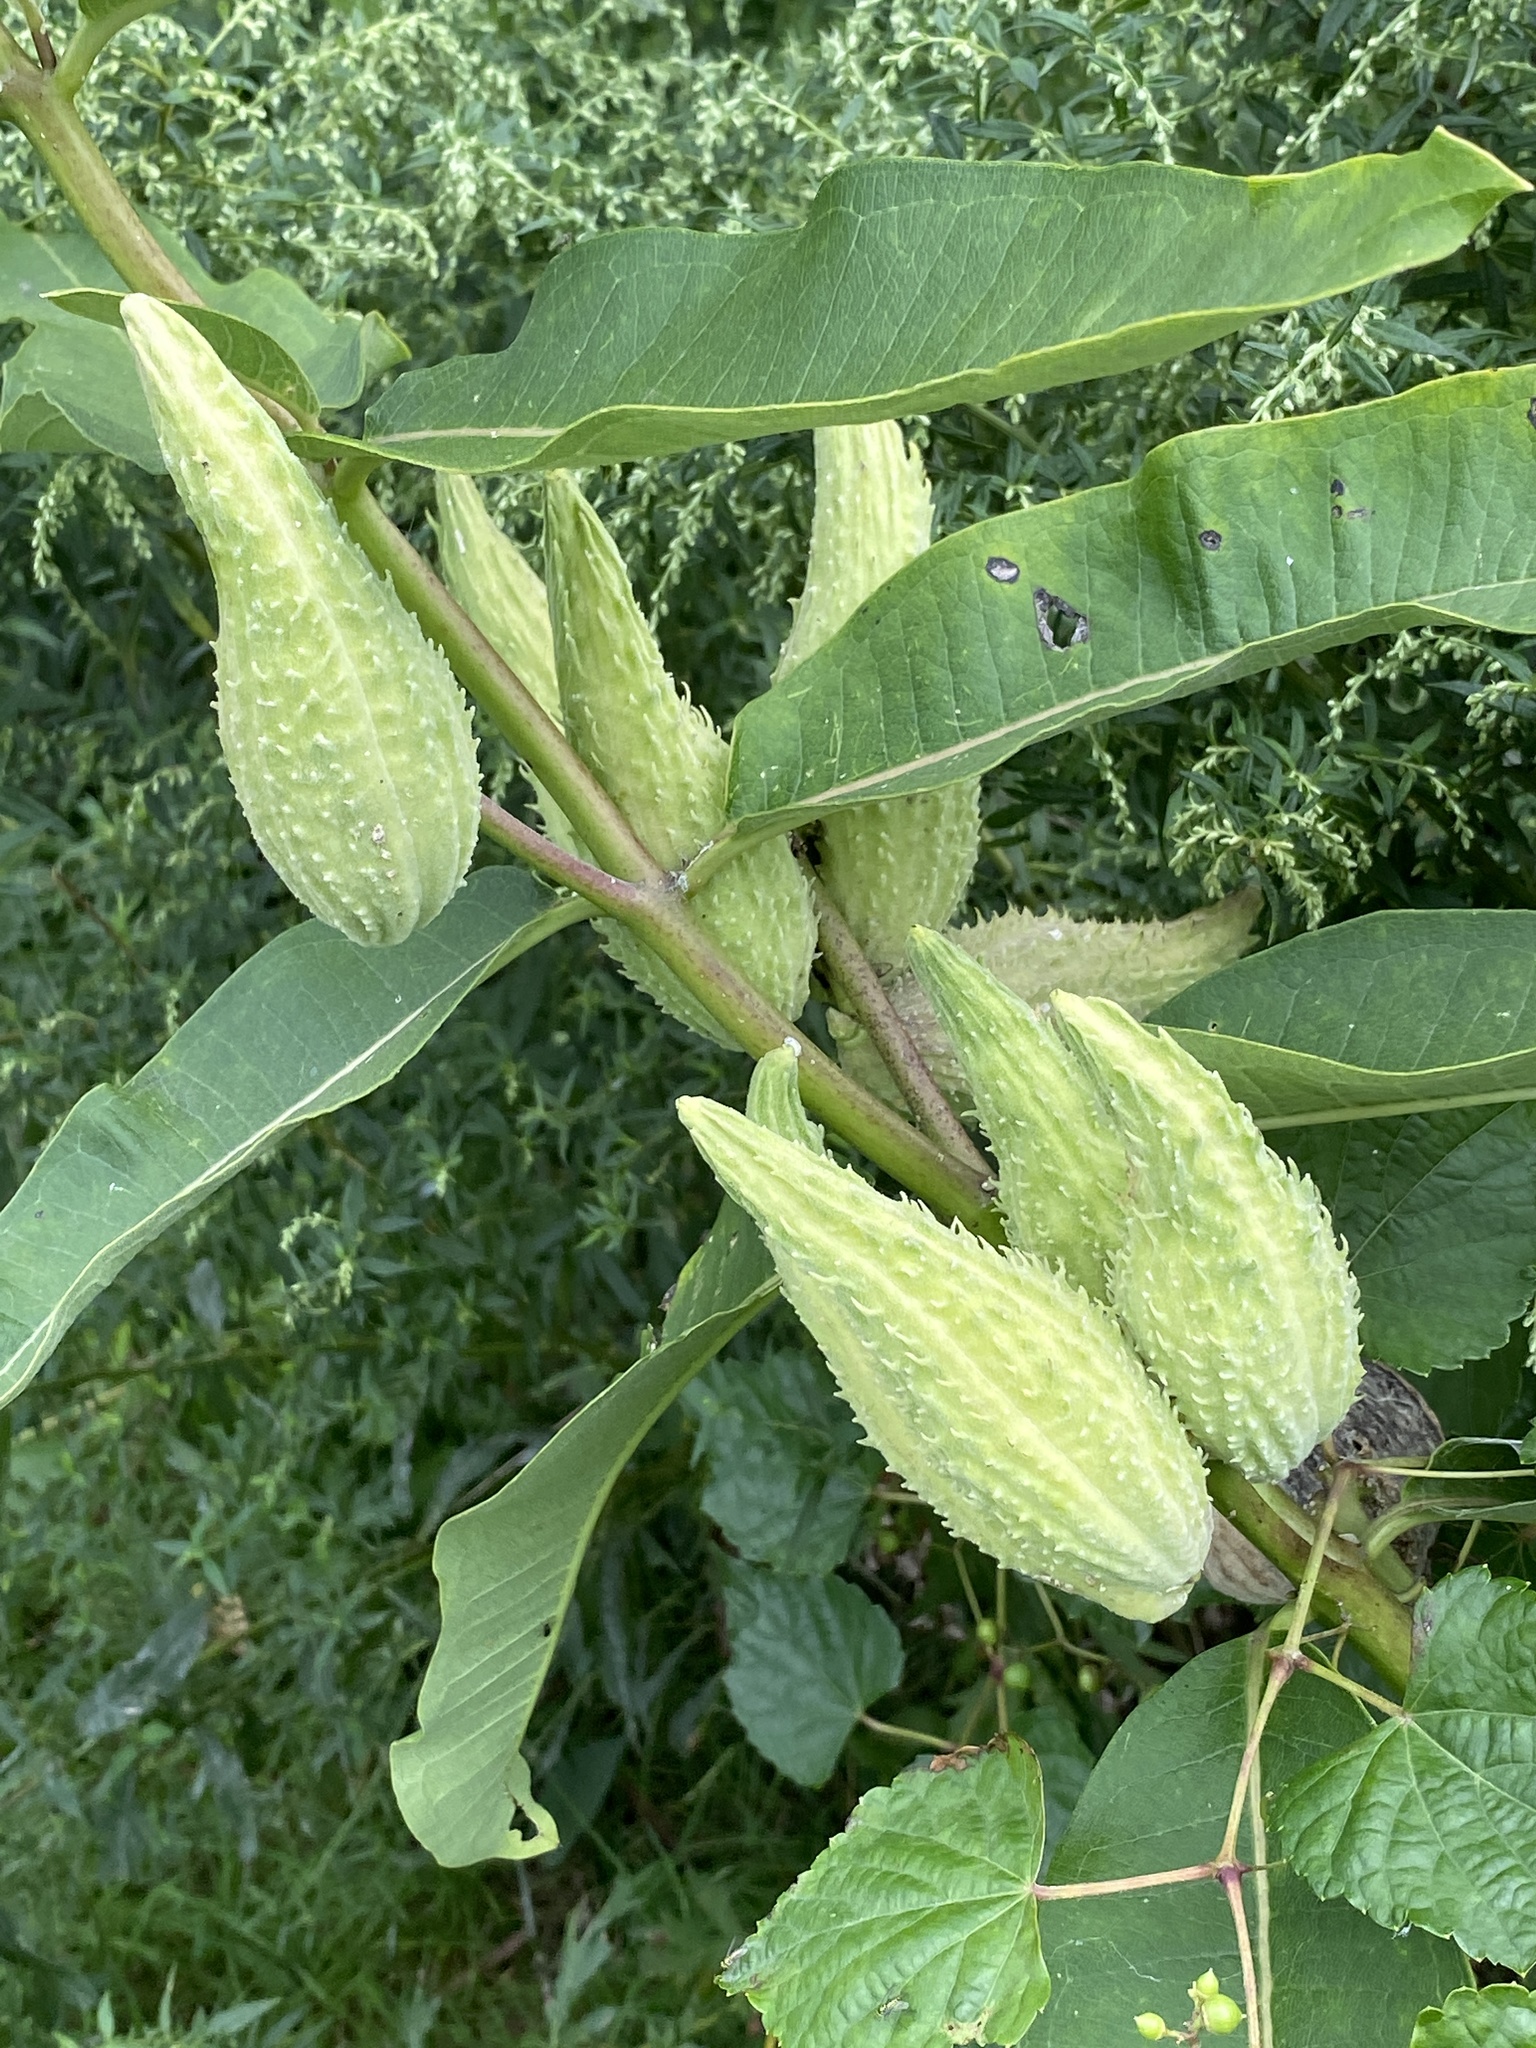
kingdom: Plantae
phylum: Tracheophyta
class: Magnoliopsida
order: Gentianales
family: Apocynaceae
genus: Asclepias
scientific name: Asclepias syriaca
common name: Common milkweed
